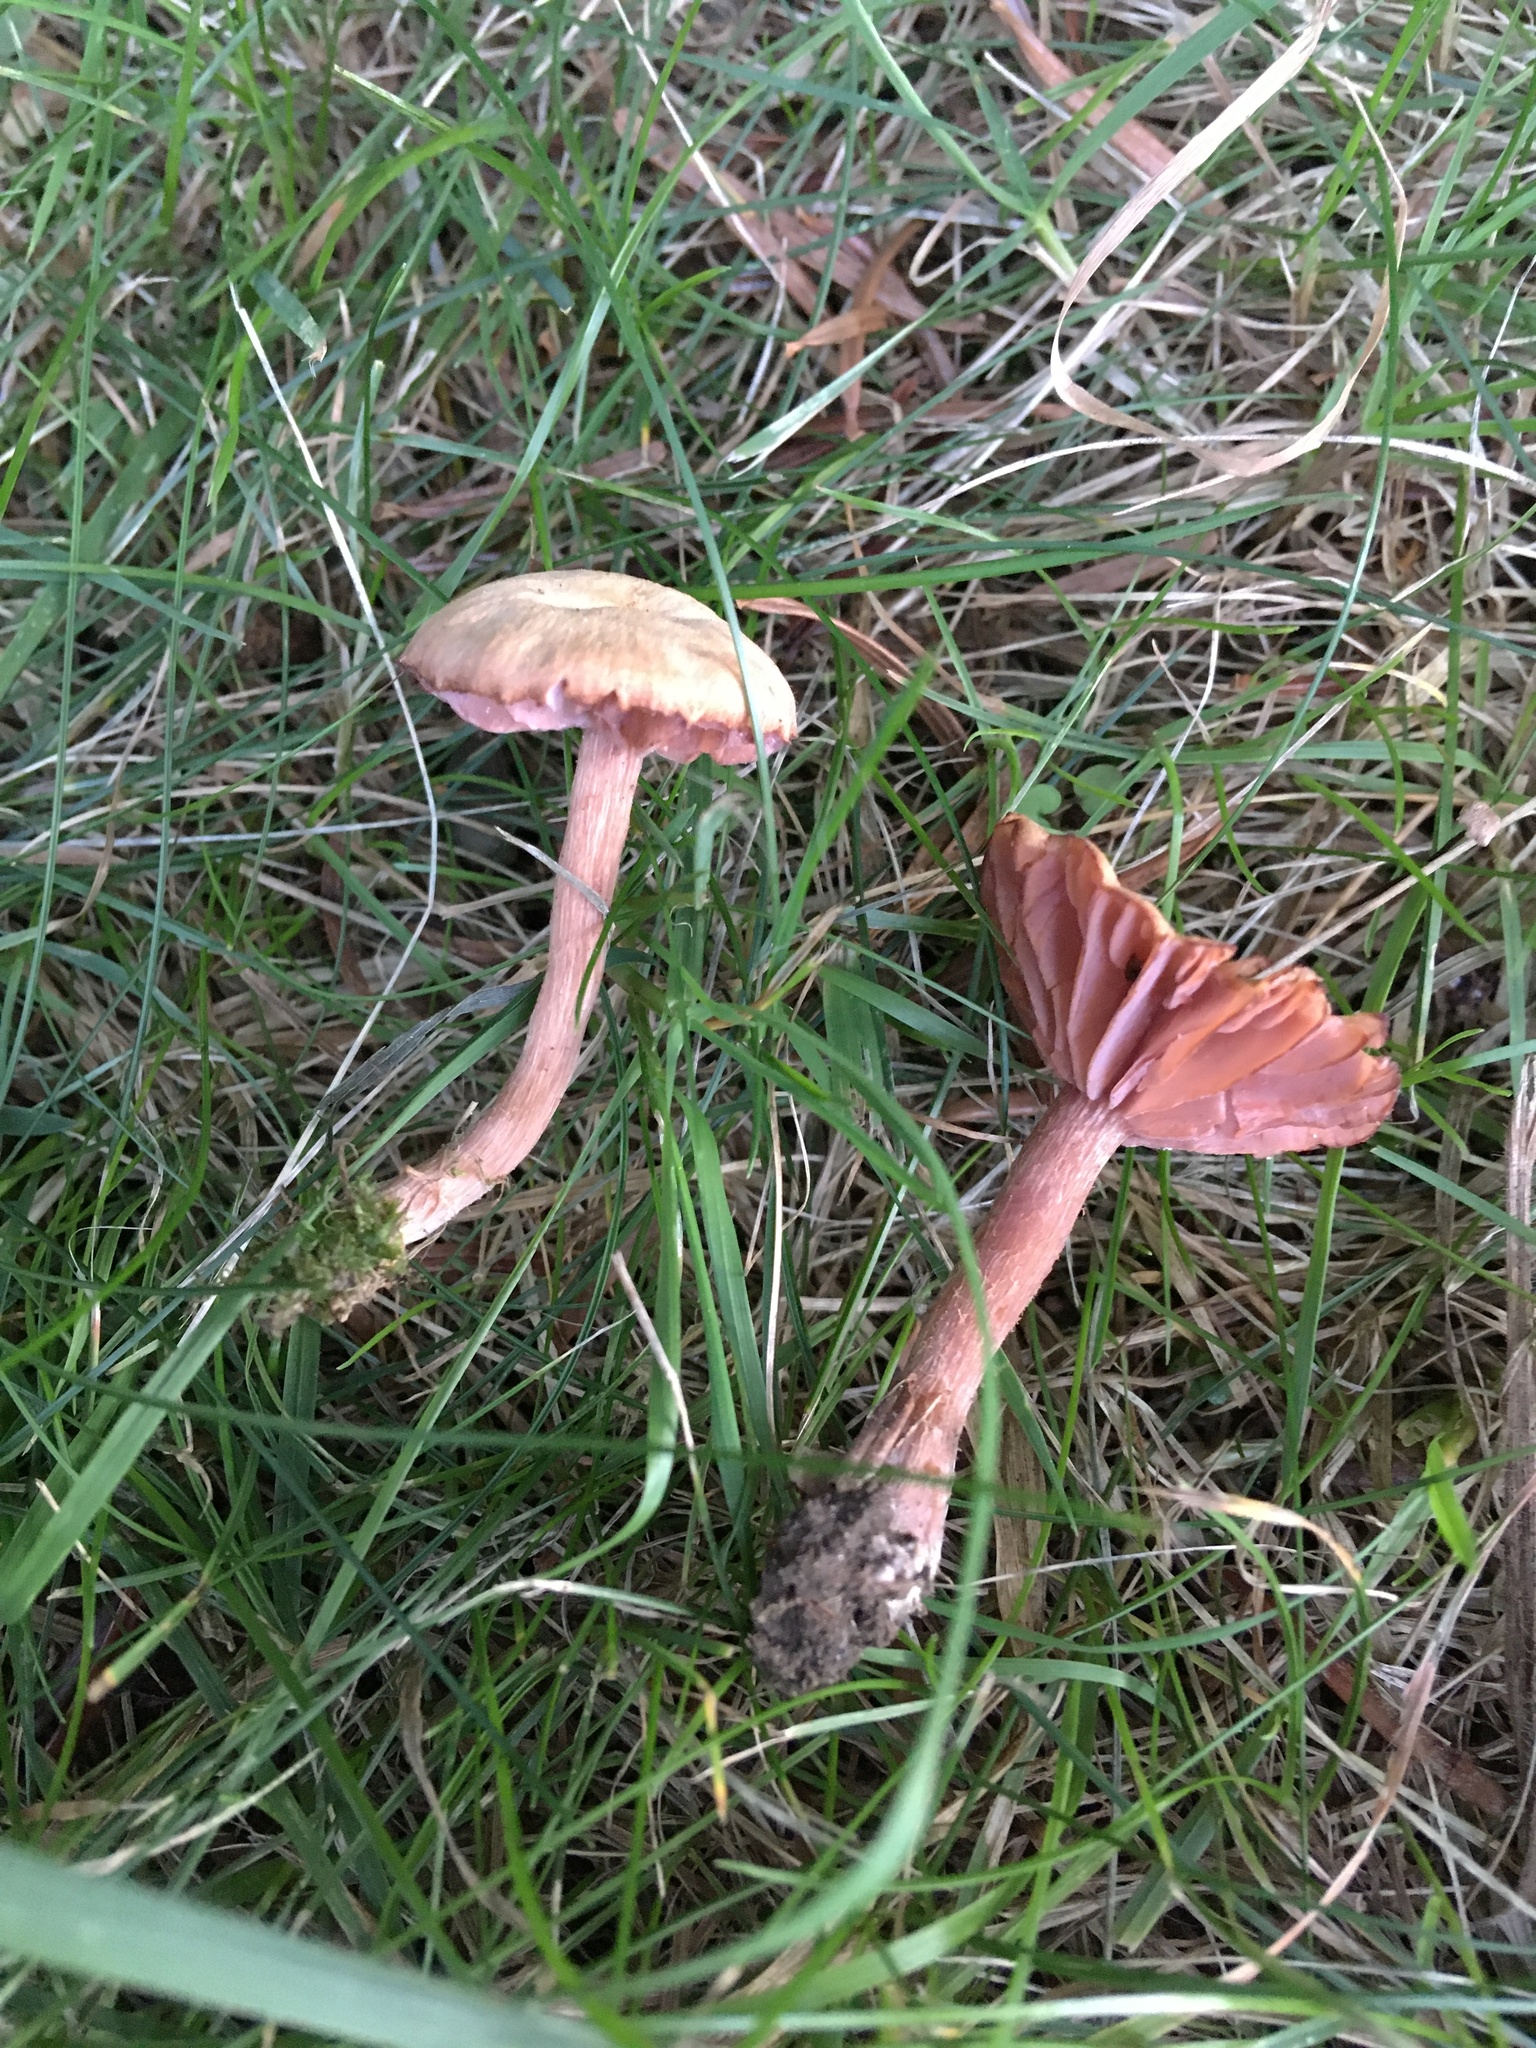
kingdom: Fungi
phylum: Basidiomycota
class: Agaricomycetes
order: Agaricales
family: Hydnangiaceae
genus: Laccaria
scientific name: Laccaria laccata
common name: Deceiver
